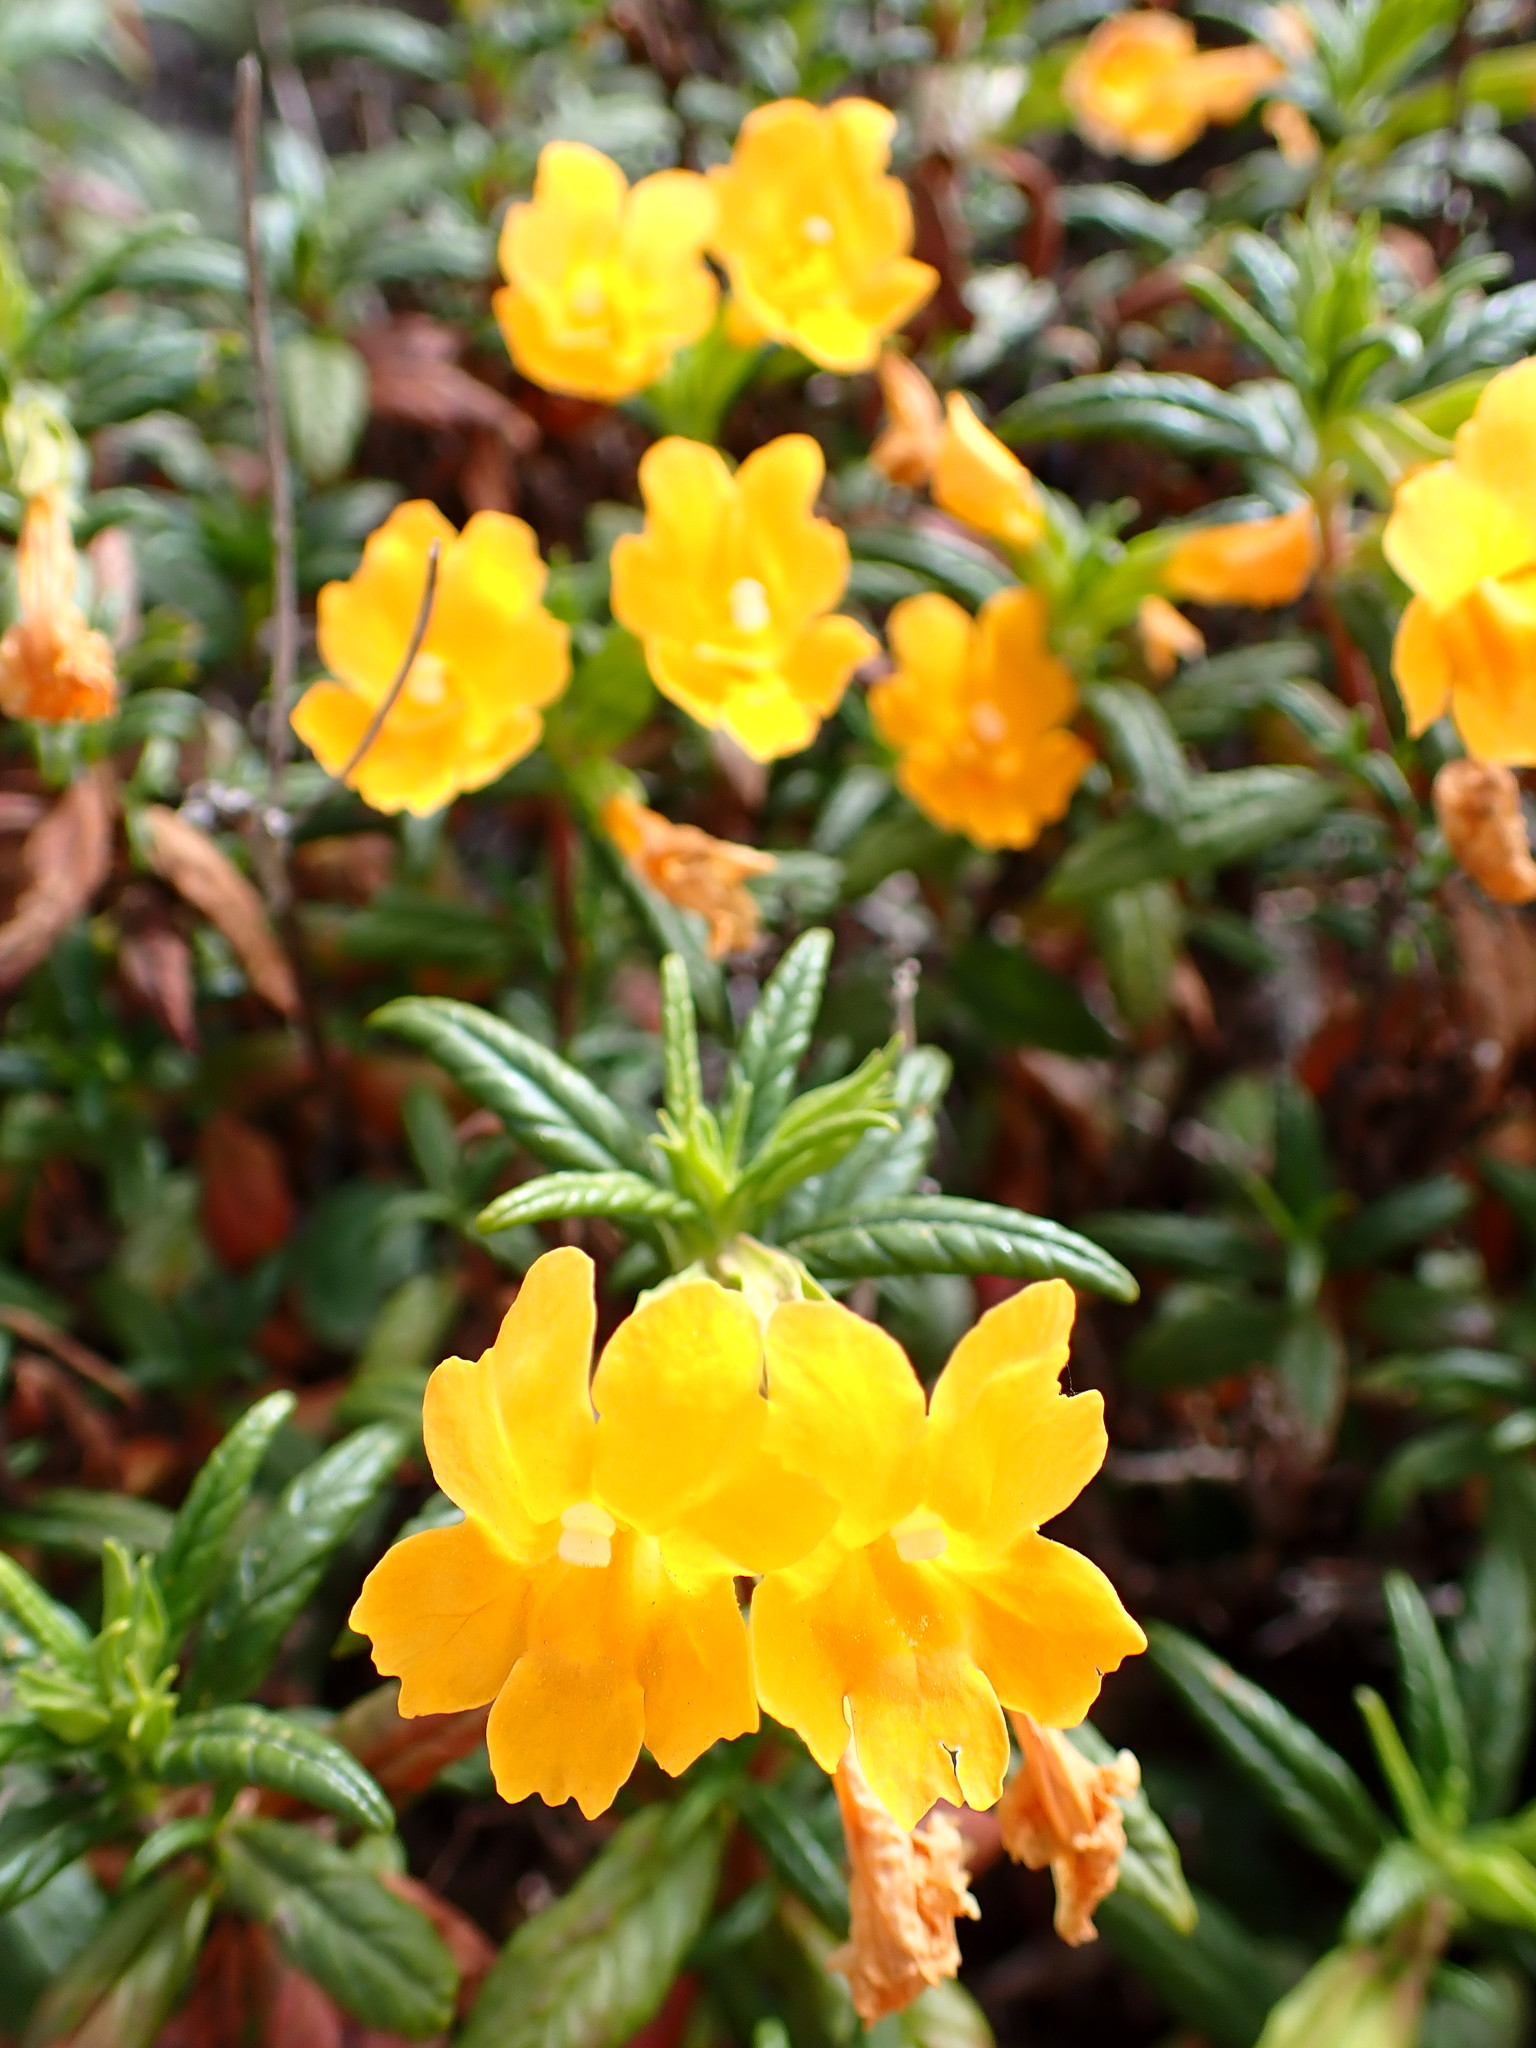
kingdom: Plantae
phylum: Tracheophyta
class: Magnoliopsida
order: Lamiales
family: Phrymaceae
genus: Diplacus
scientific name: Diplacus aurantiacus
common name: Bush monkey-flower
